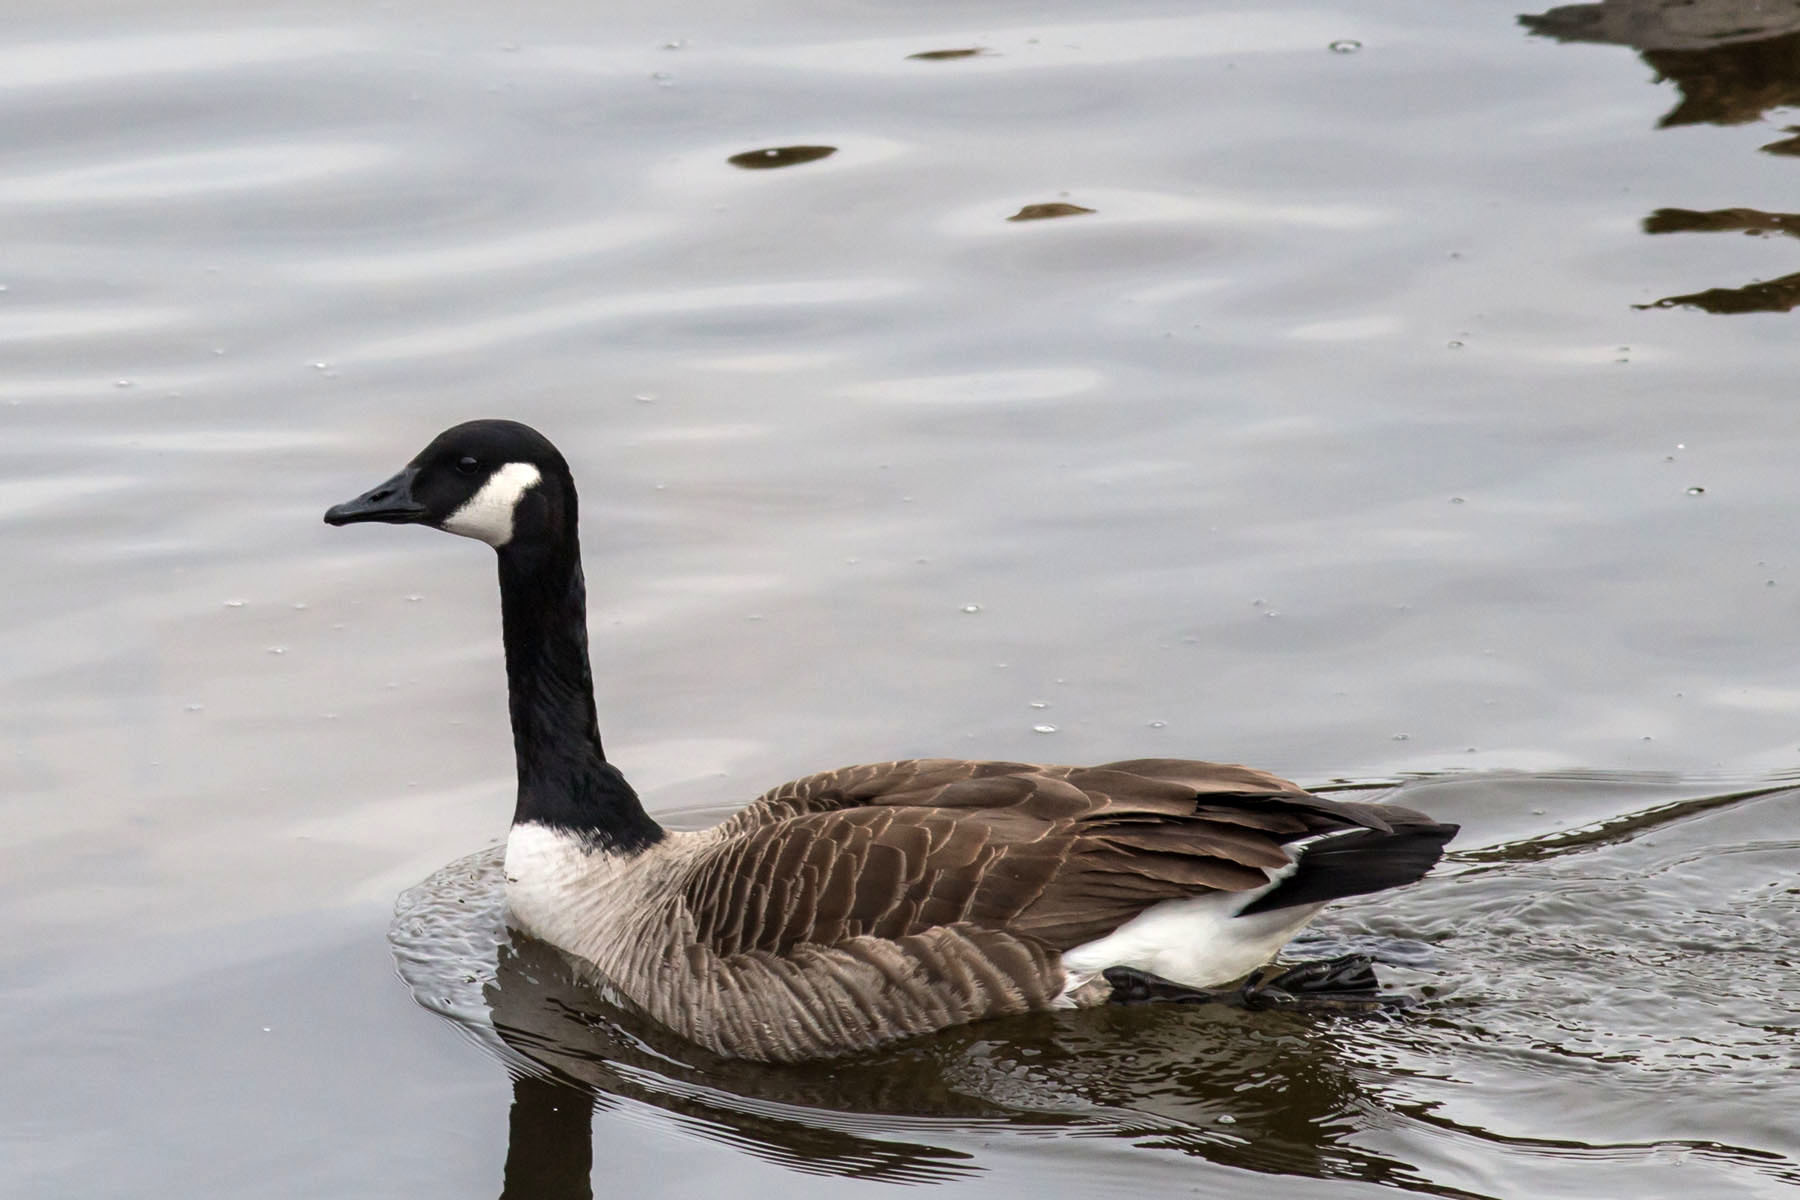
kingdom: Animalia
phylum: Chordata
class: Aves
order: Anseriformes
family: Anatidae
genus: Branta
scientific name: Branta canadensis
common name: Canada goose
